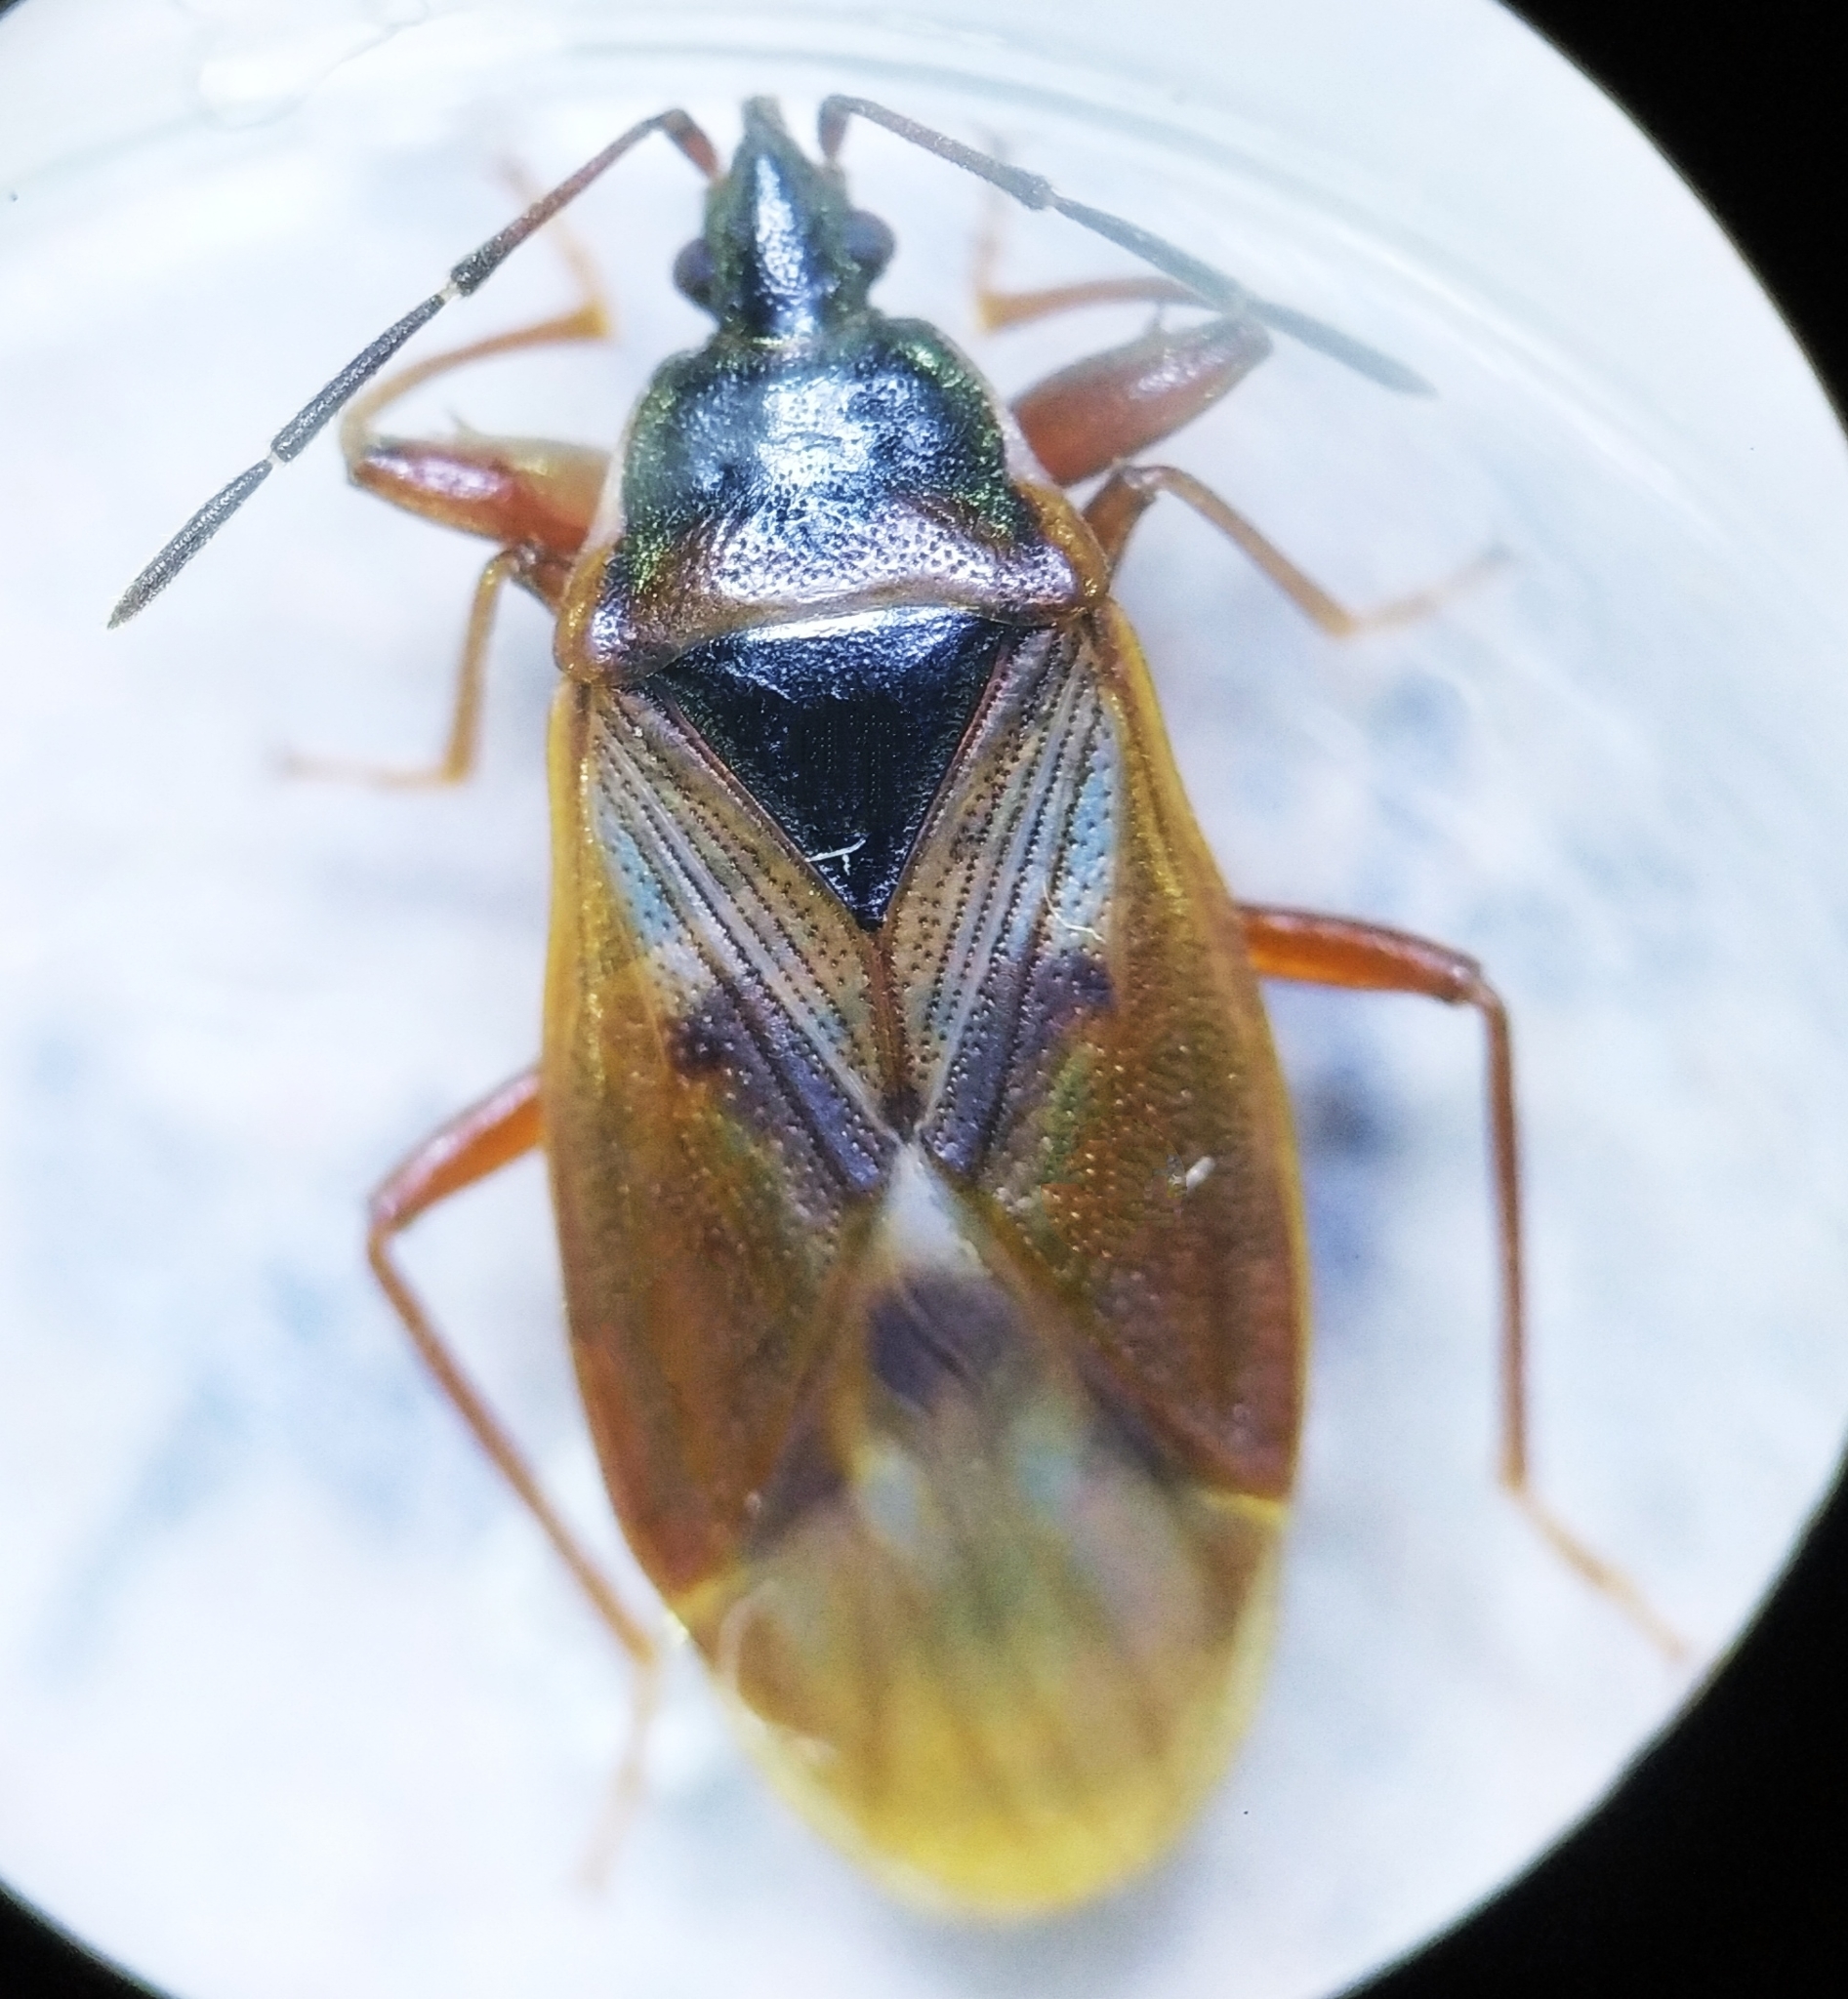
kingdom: Animalia
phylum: Arthropoda
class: Insecta
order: Hemiptera
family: Rhyparochromidae
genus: Gastrodes
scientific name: Gastrodes abietum
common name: Spruce cone bug
